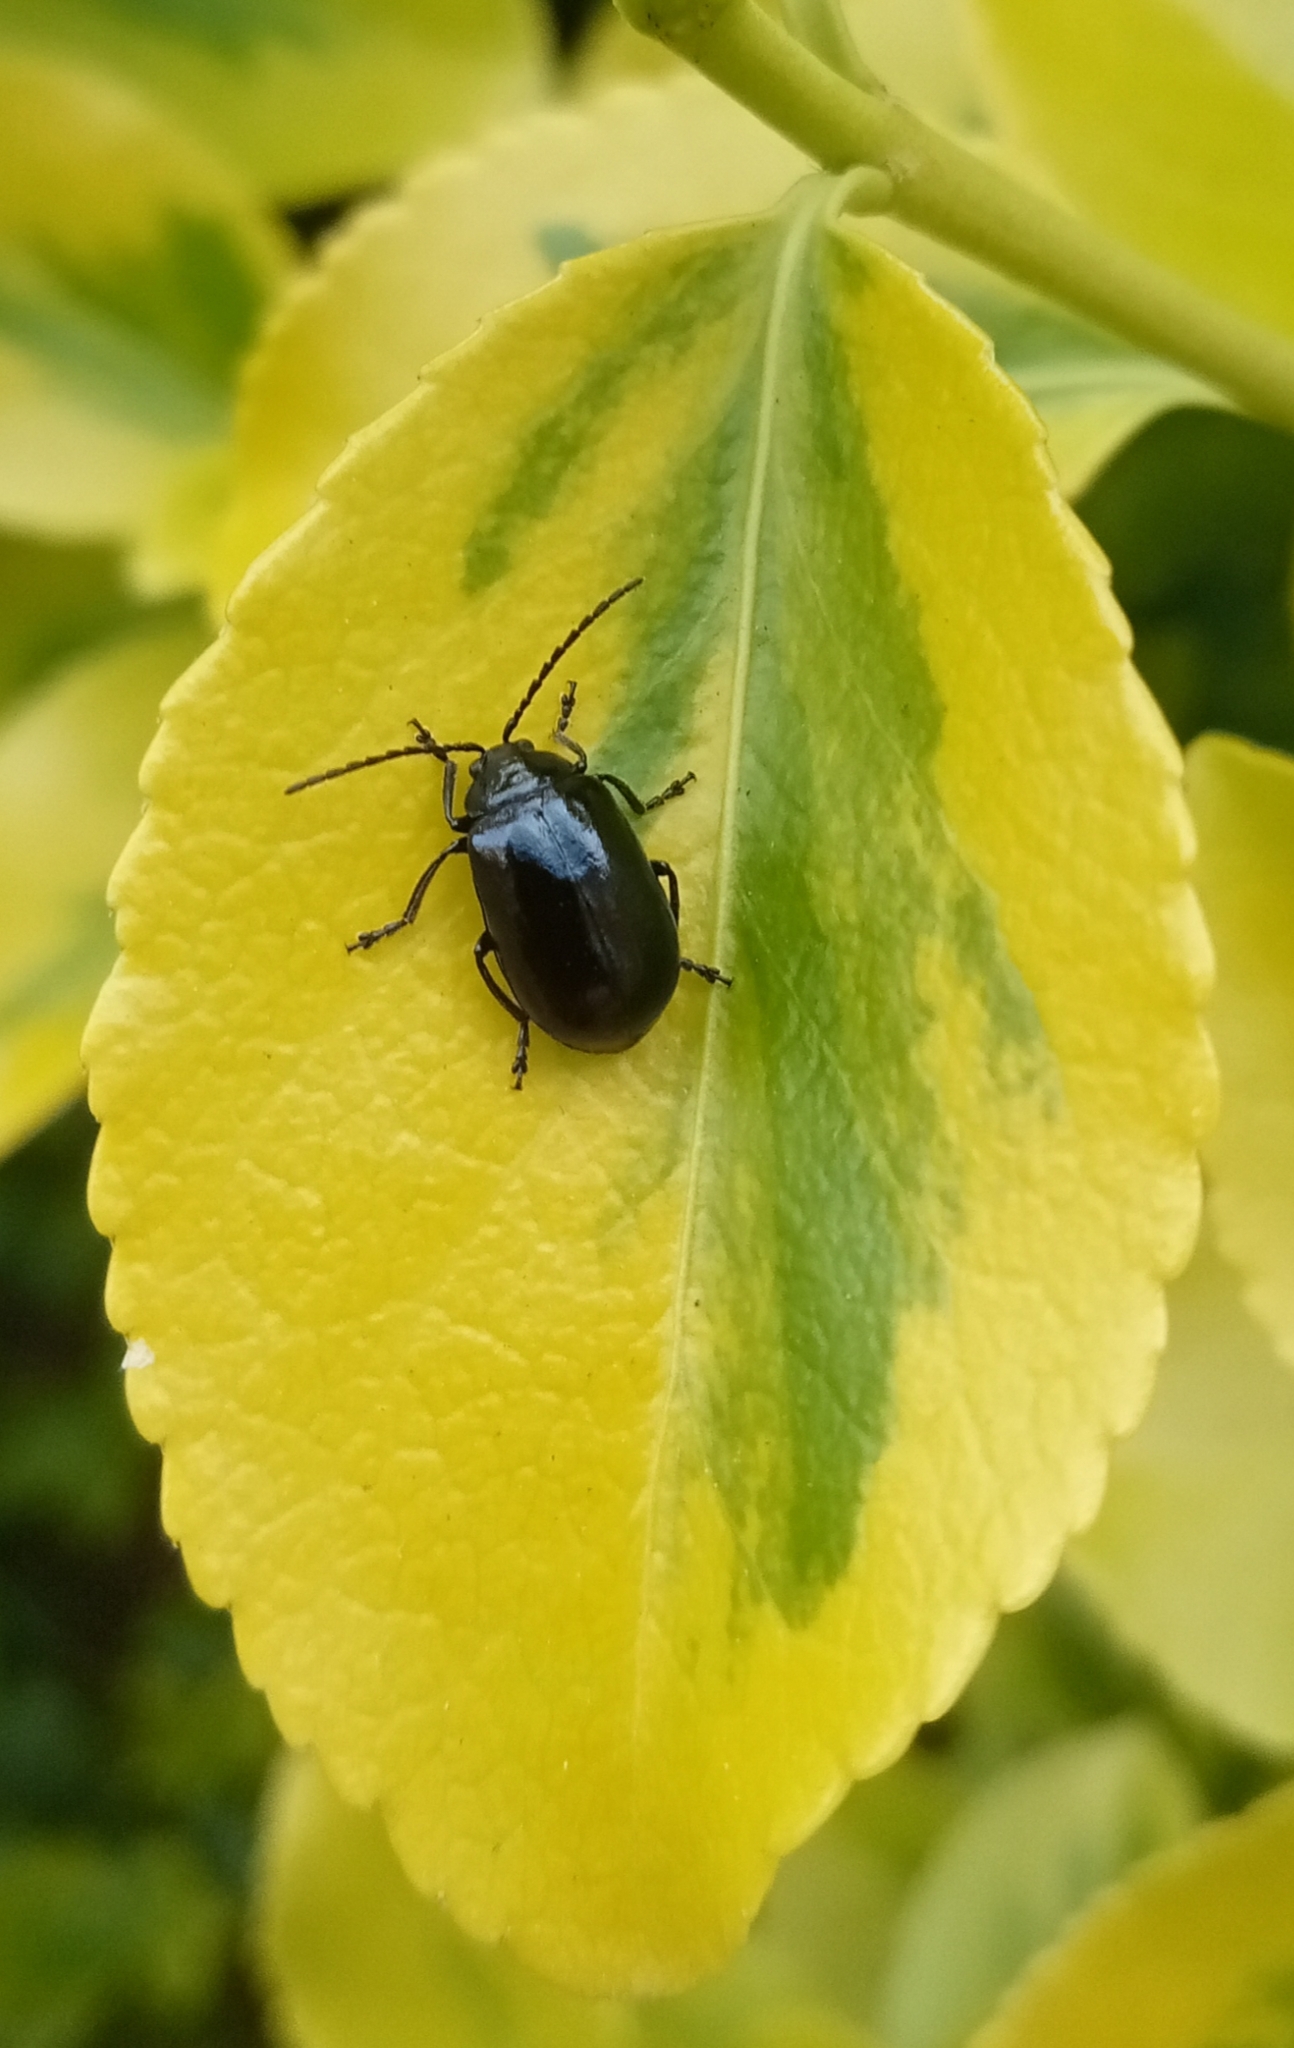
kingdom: Animalia
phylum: Arthropoda
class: Insecta
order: Coleoptera
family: Chrysomelidae
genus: Agelastica
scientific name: Agelastica alni
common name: Alder leaf beetle
